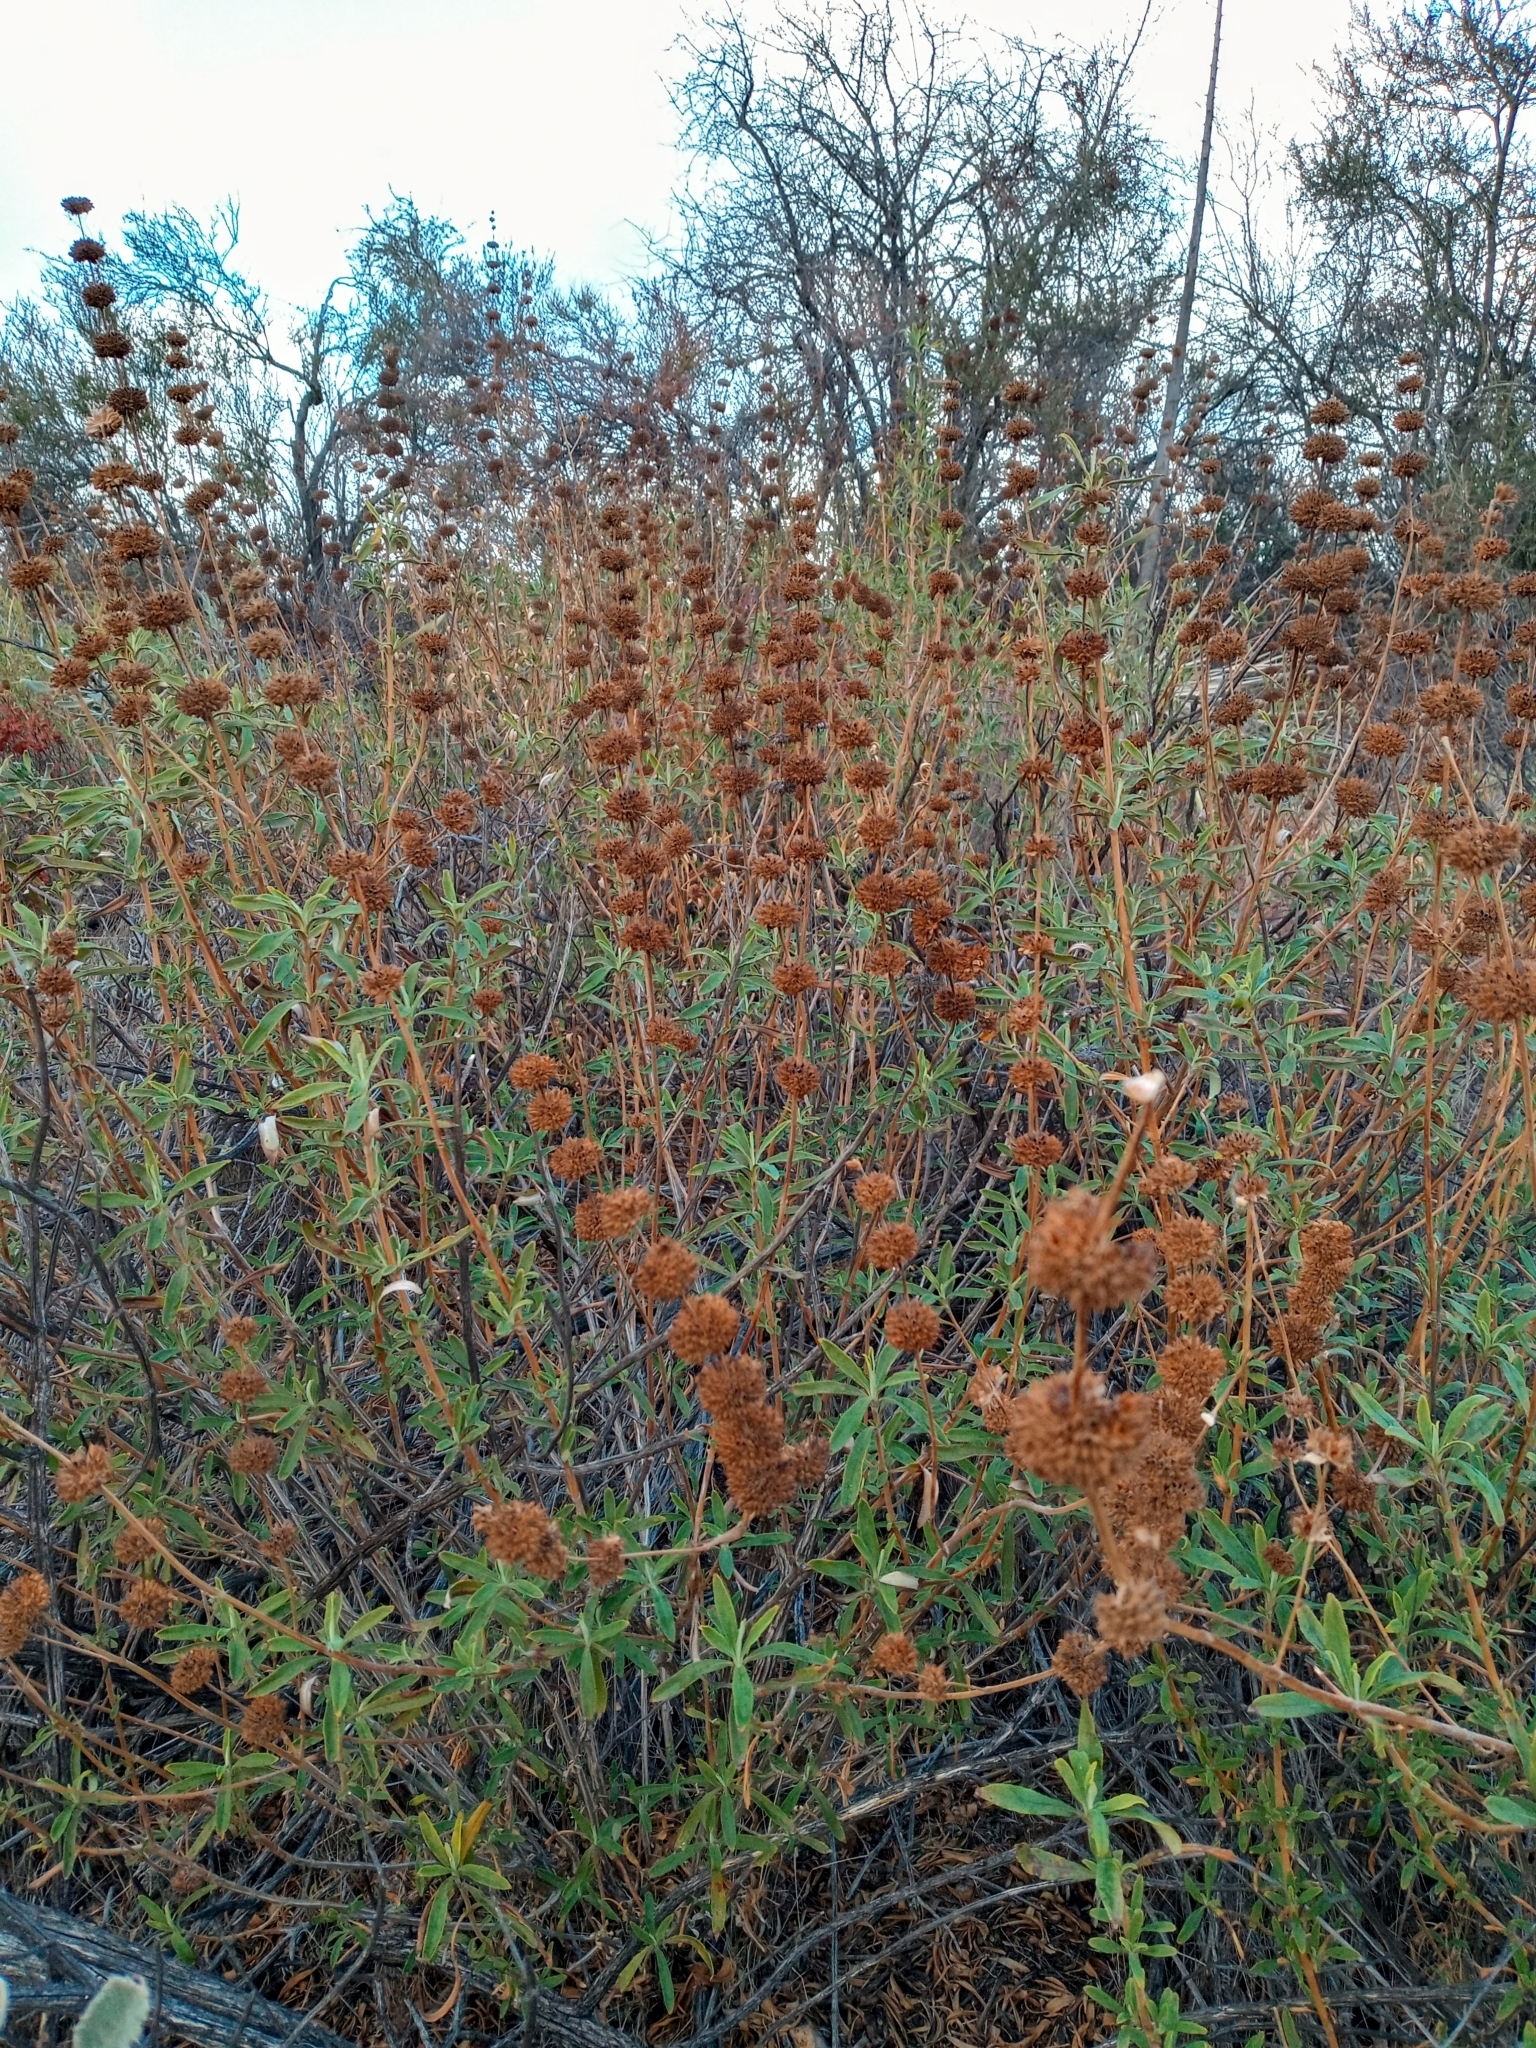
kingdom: Plantae
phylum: Tracheophyta
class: Magnoliopsida
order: Lamiales
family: Lamiaceae
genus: Salvia
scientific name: Salvia mellifera
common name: Black sage
